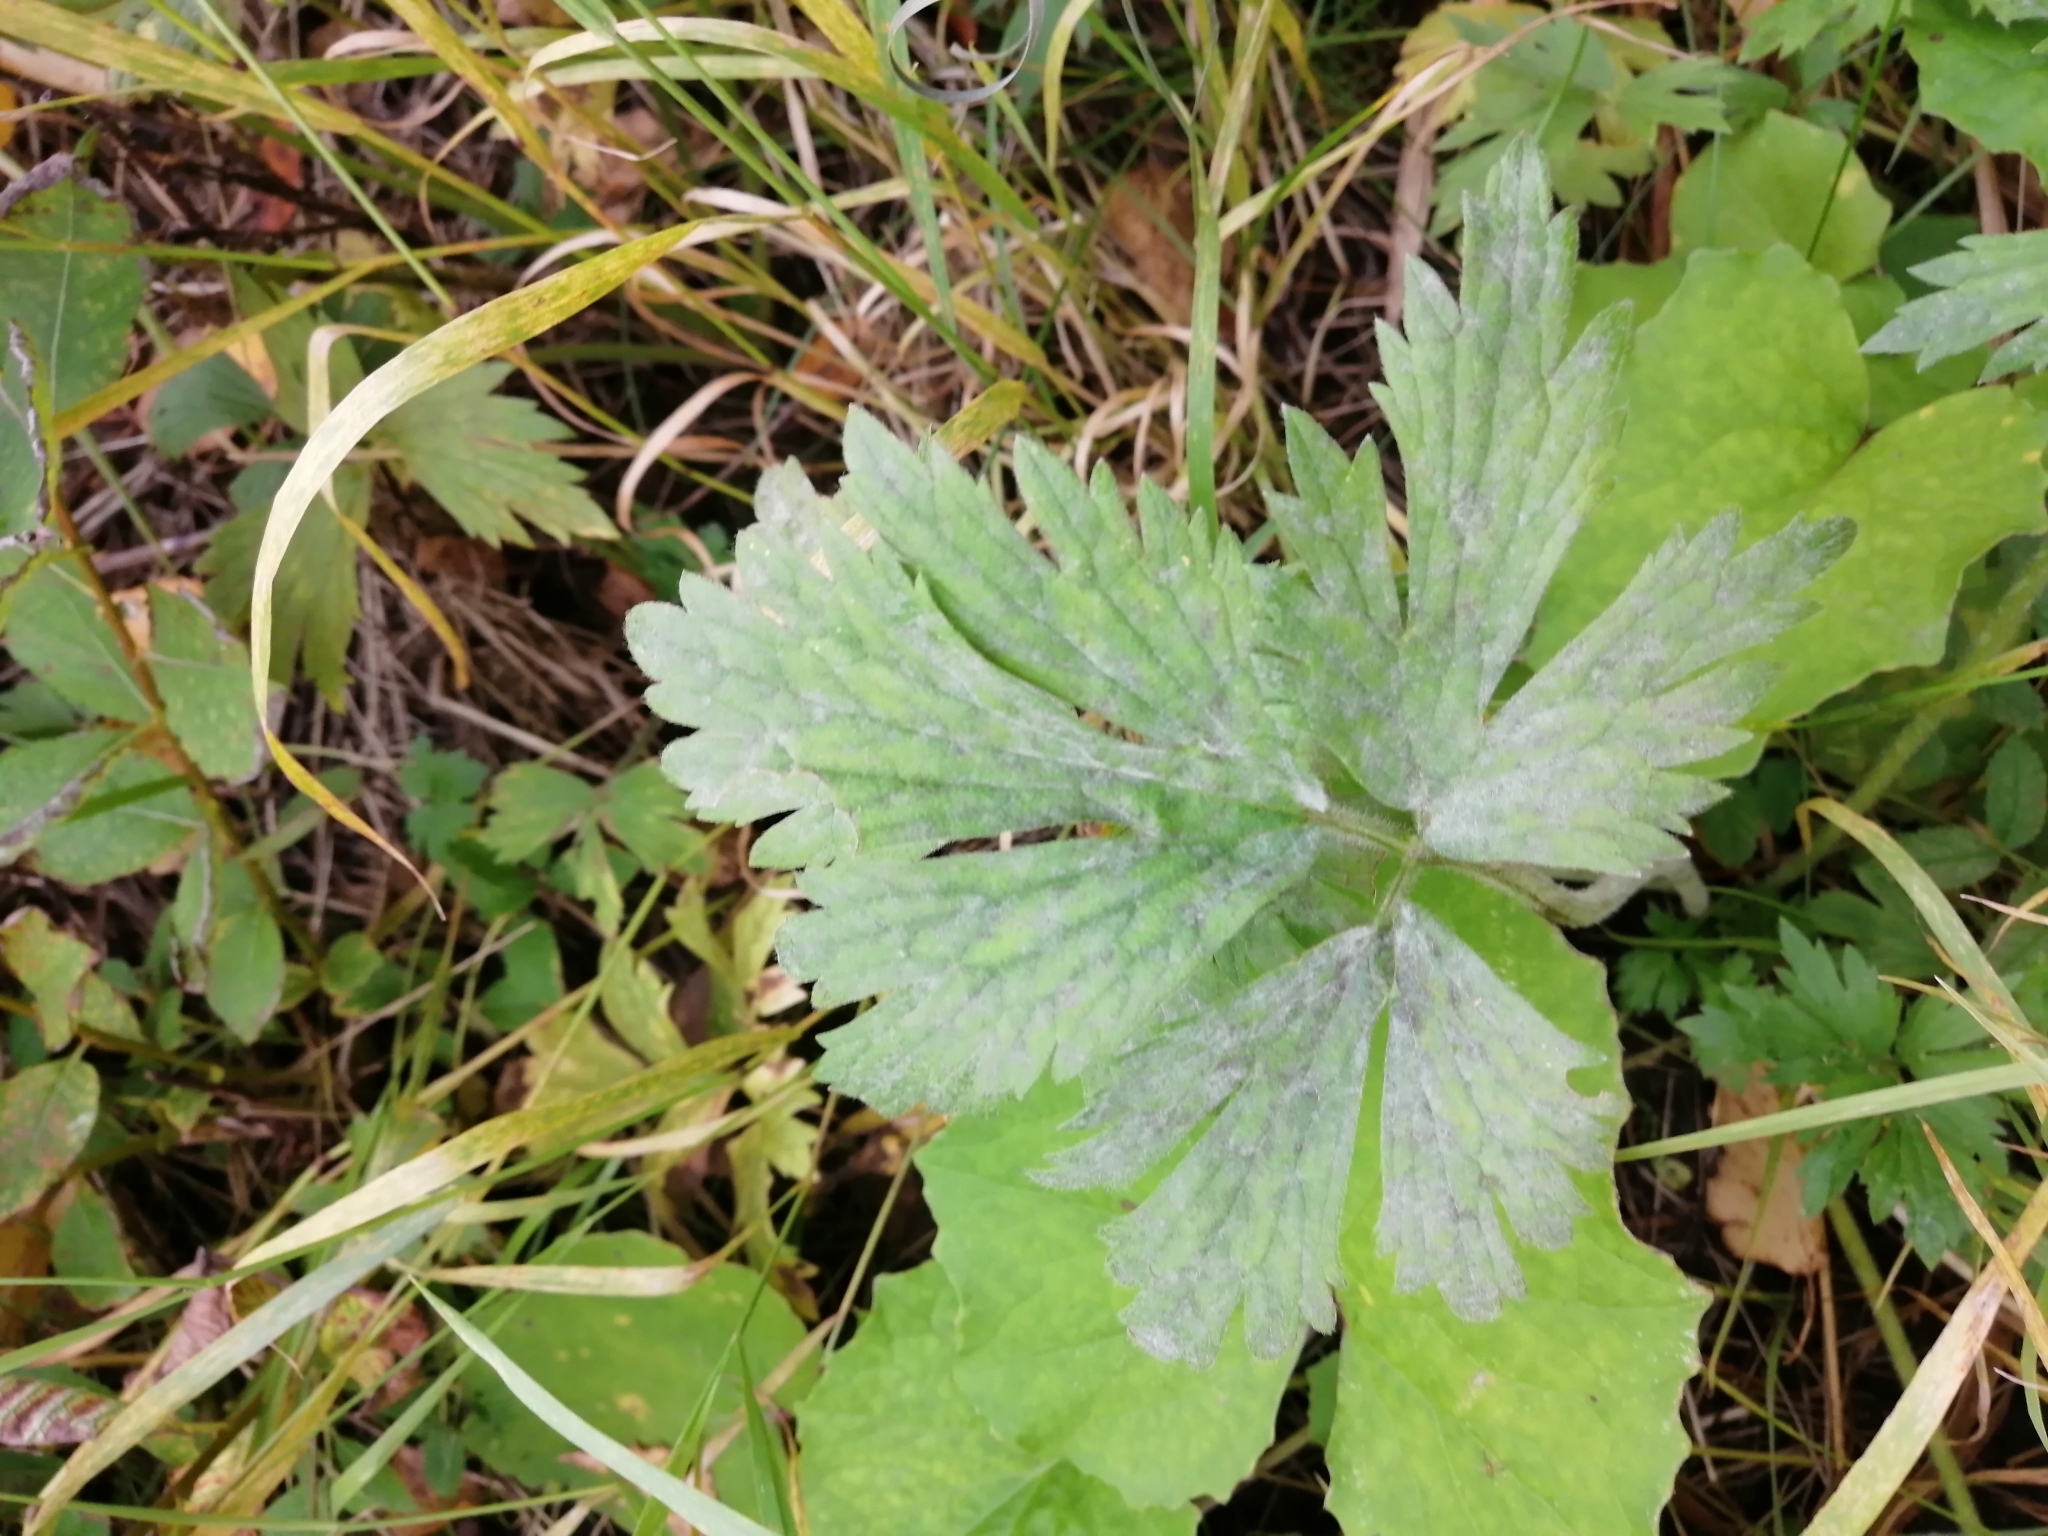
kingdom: Plantae
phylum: Tracheophyta
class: Magnoliopsida
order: Ranunculales
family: Ranunculaceae
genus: Ranunculus
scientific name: Ranunculus repens
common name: Creeping buttercup
